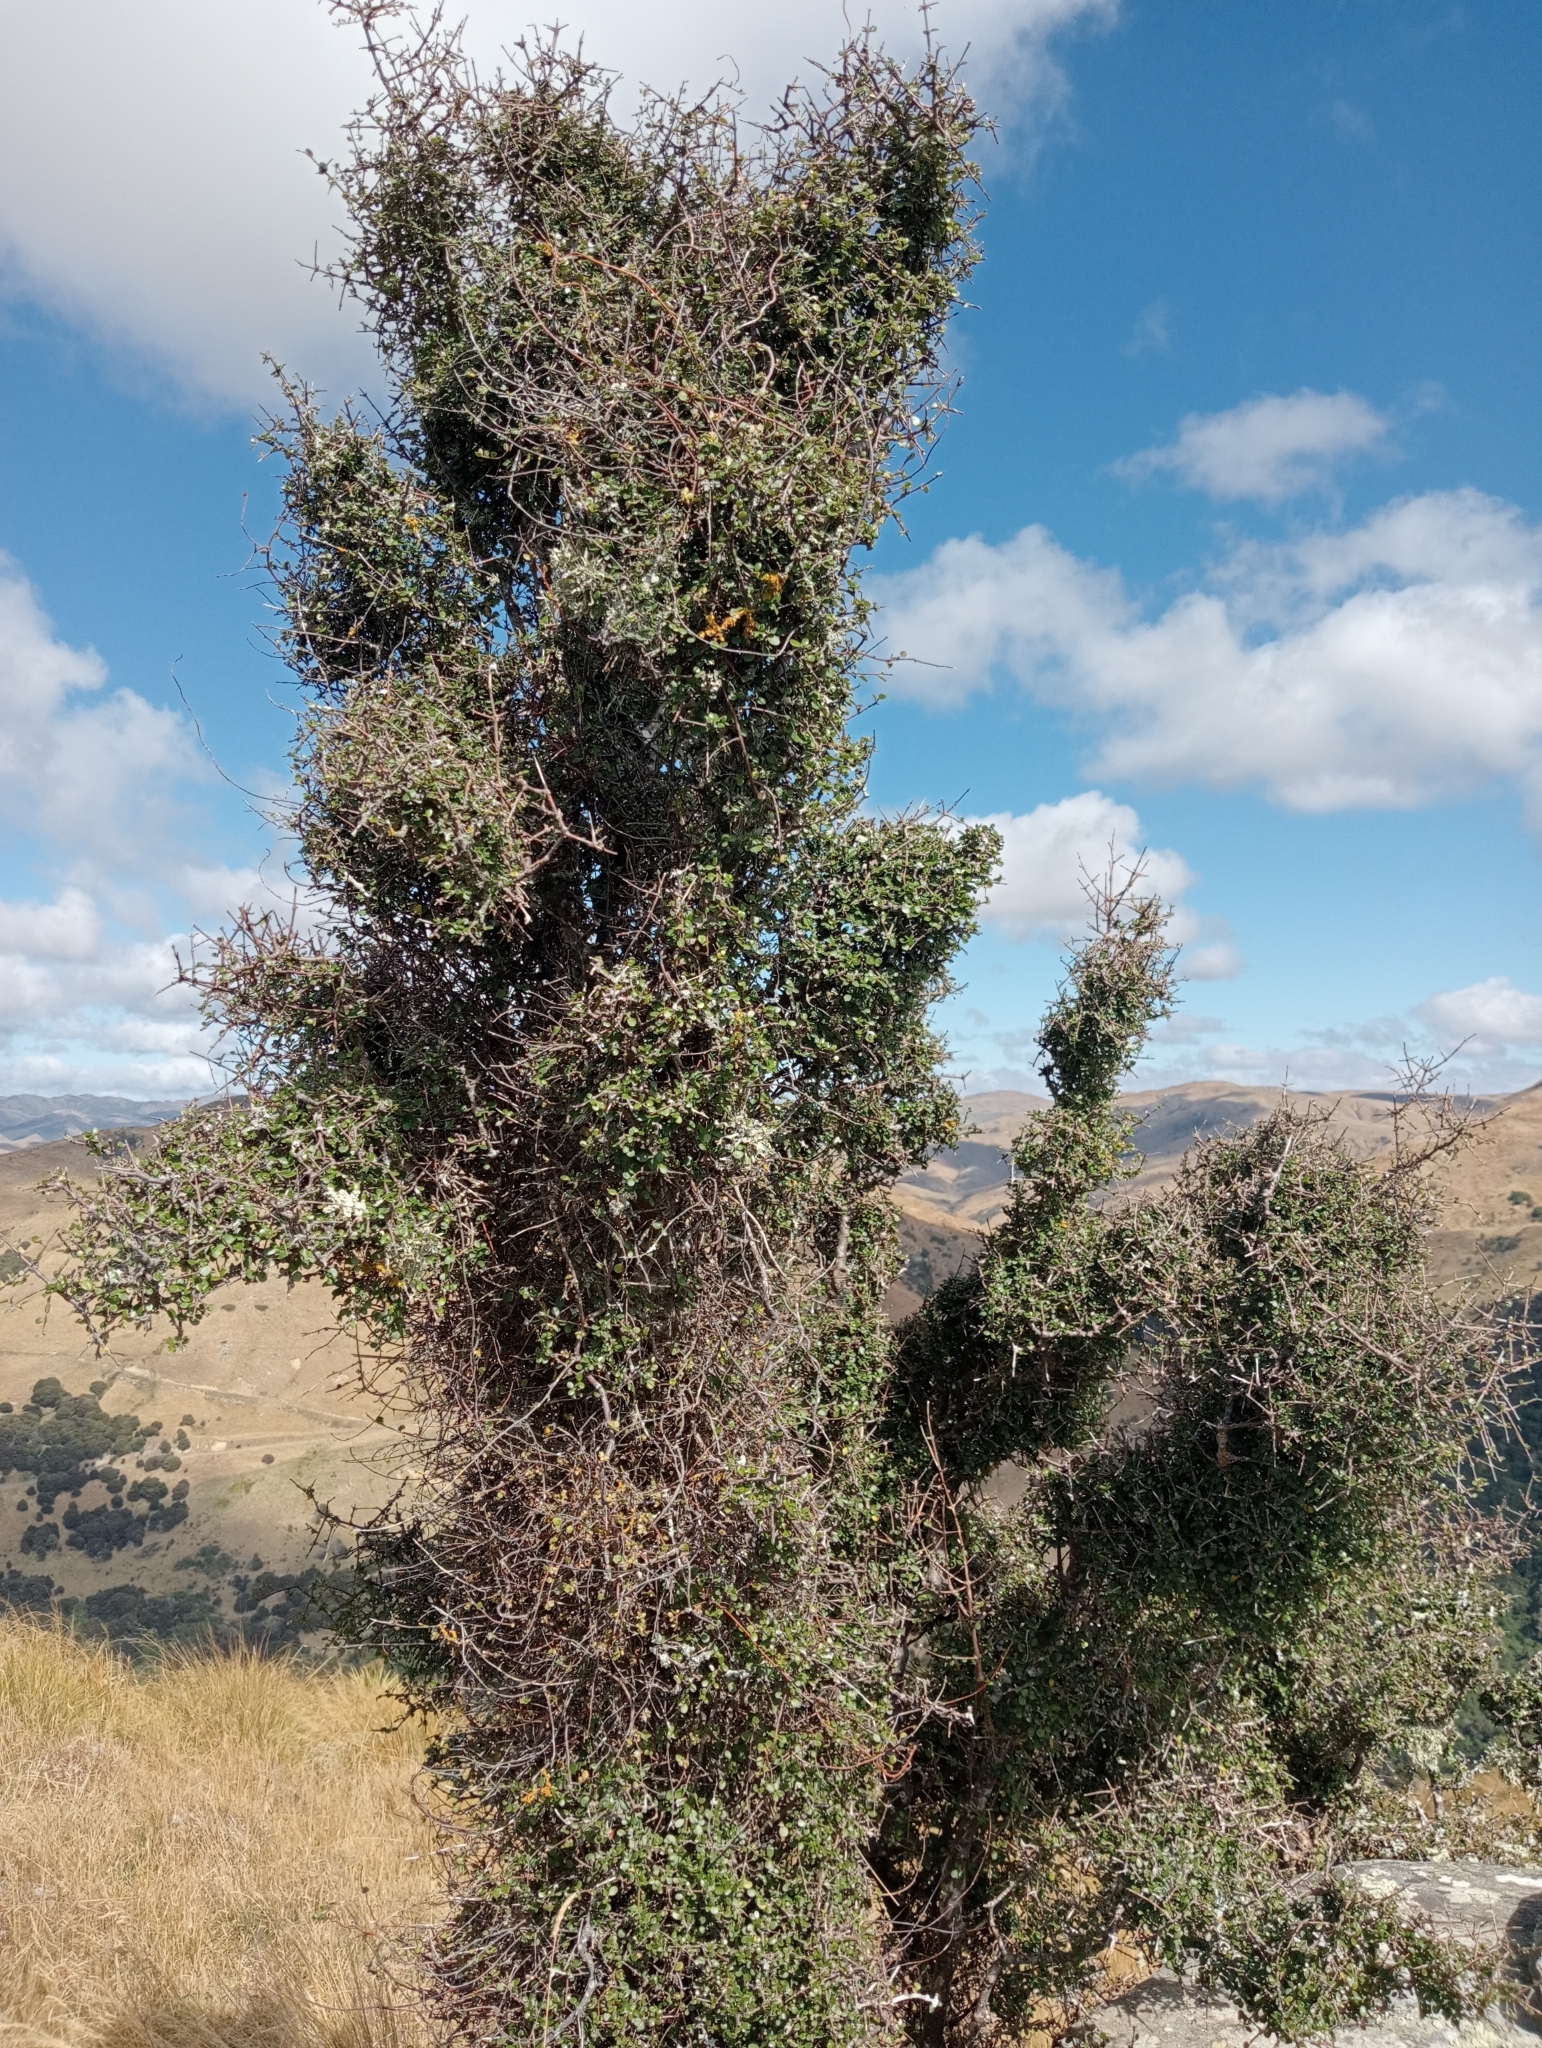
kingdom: Plantae
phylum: Tracheophyta
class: Magnoliopsida
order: Gentianales
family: Rubiaceae
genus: Coprosma
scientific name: Coprosma crassifolia
